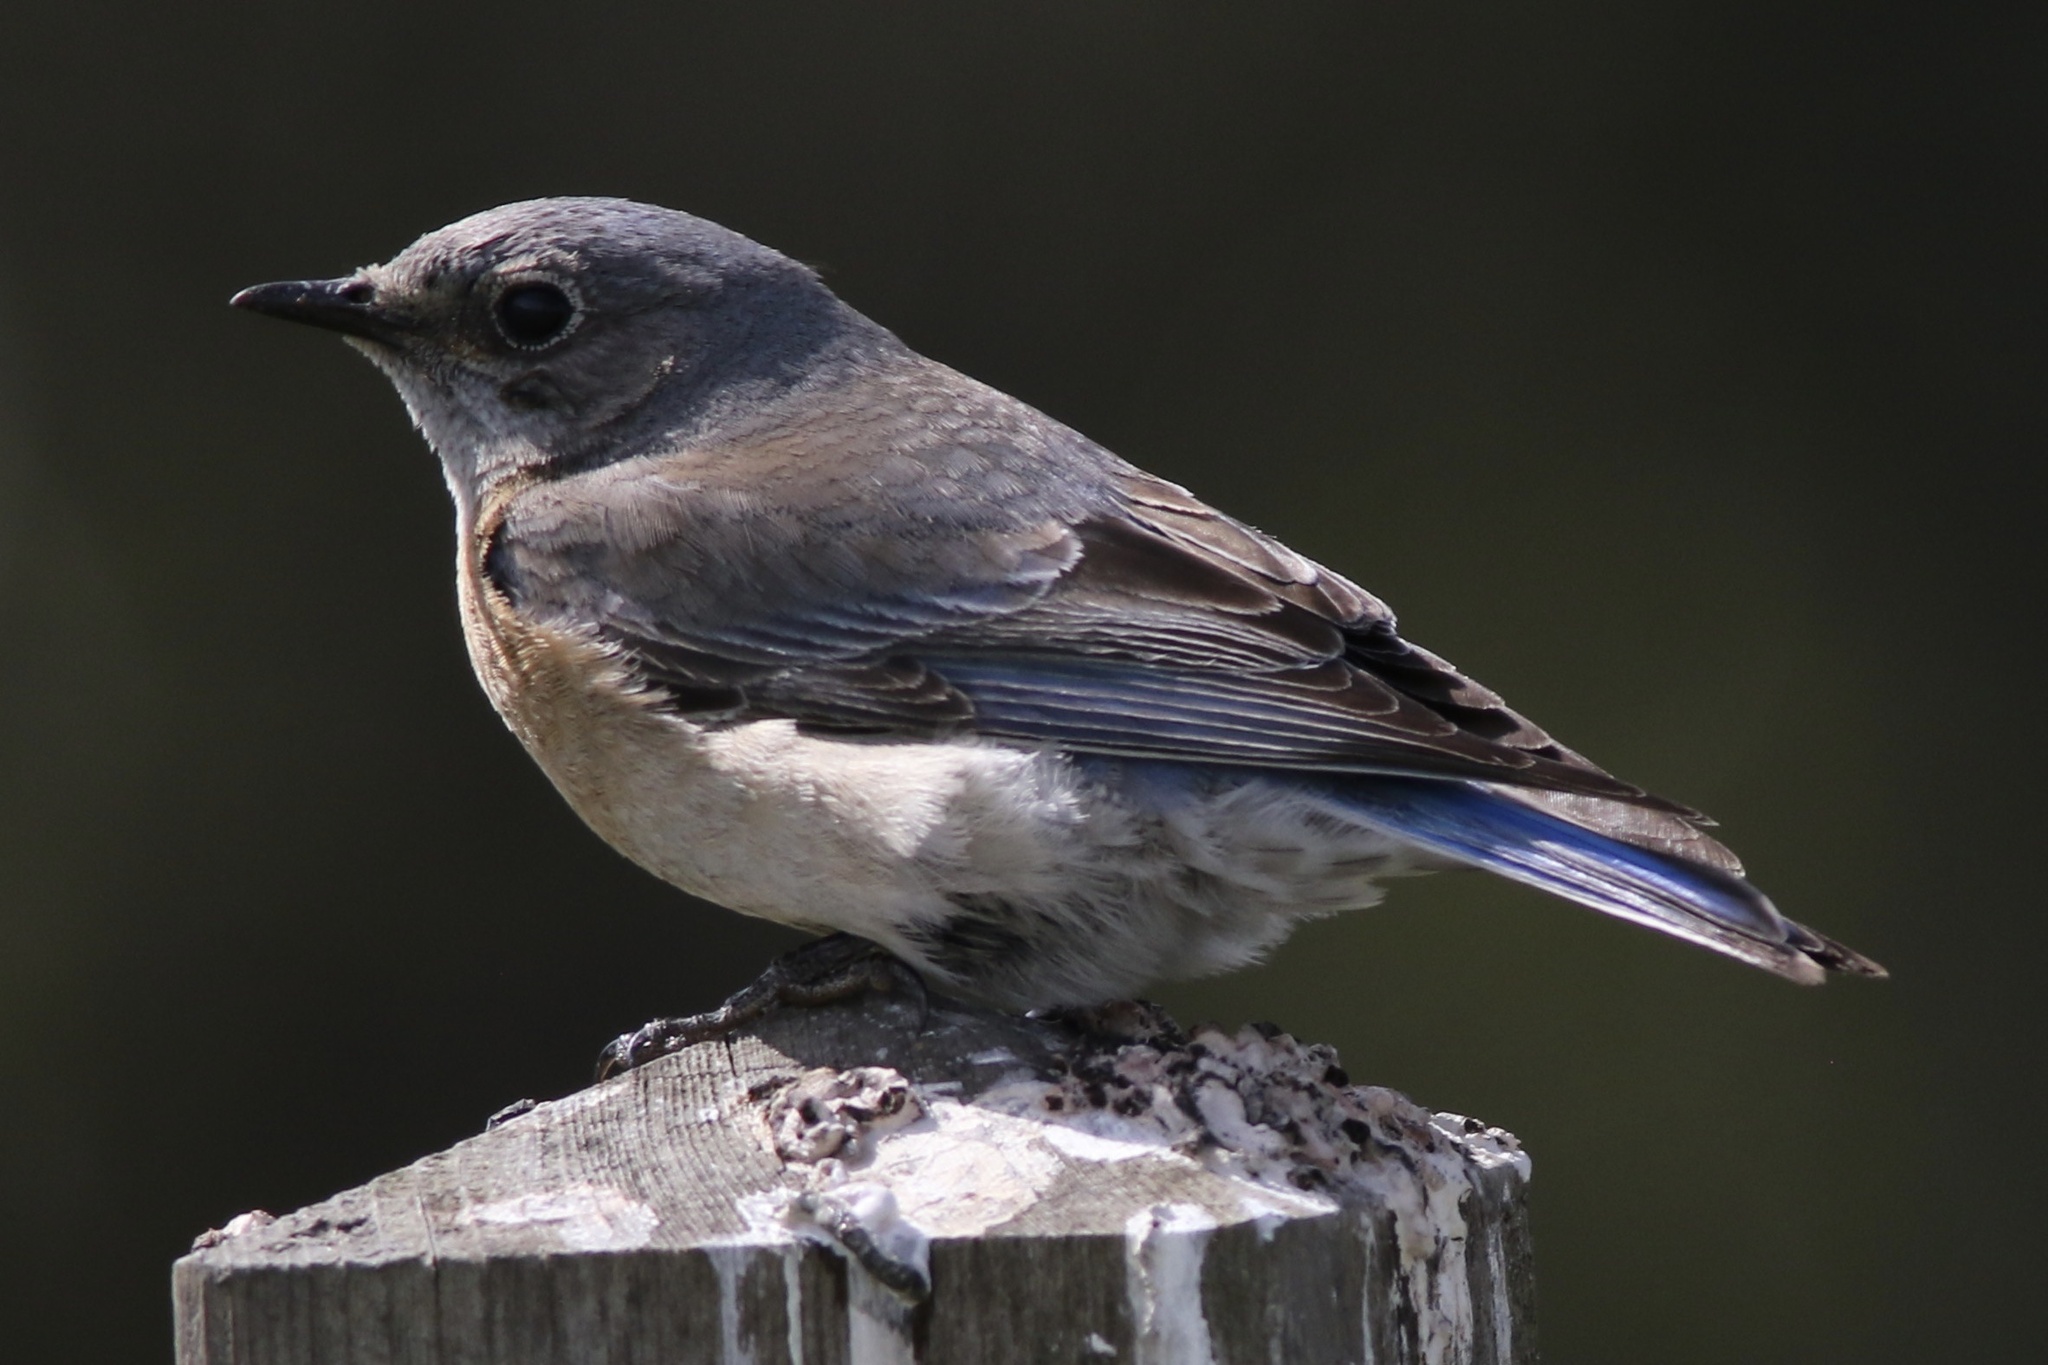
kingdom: Animalia
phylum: Chordata
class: Aves
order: Passeriformes
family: Turdidae
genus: Sialia
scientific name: Sialia mexicana
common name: Western bluebird
